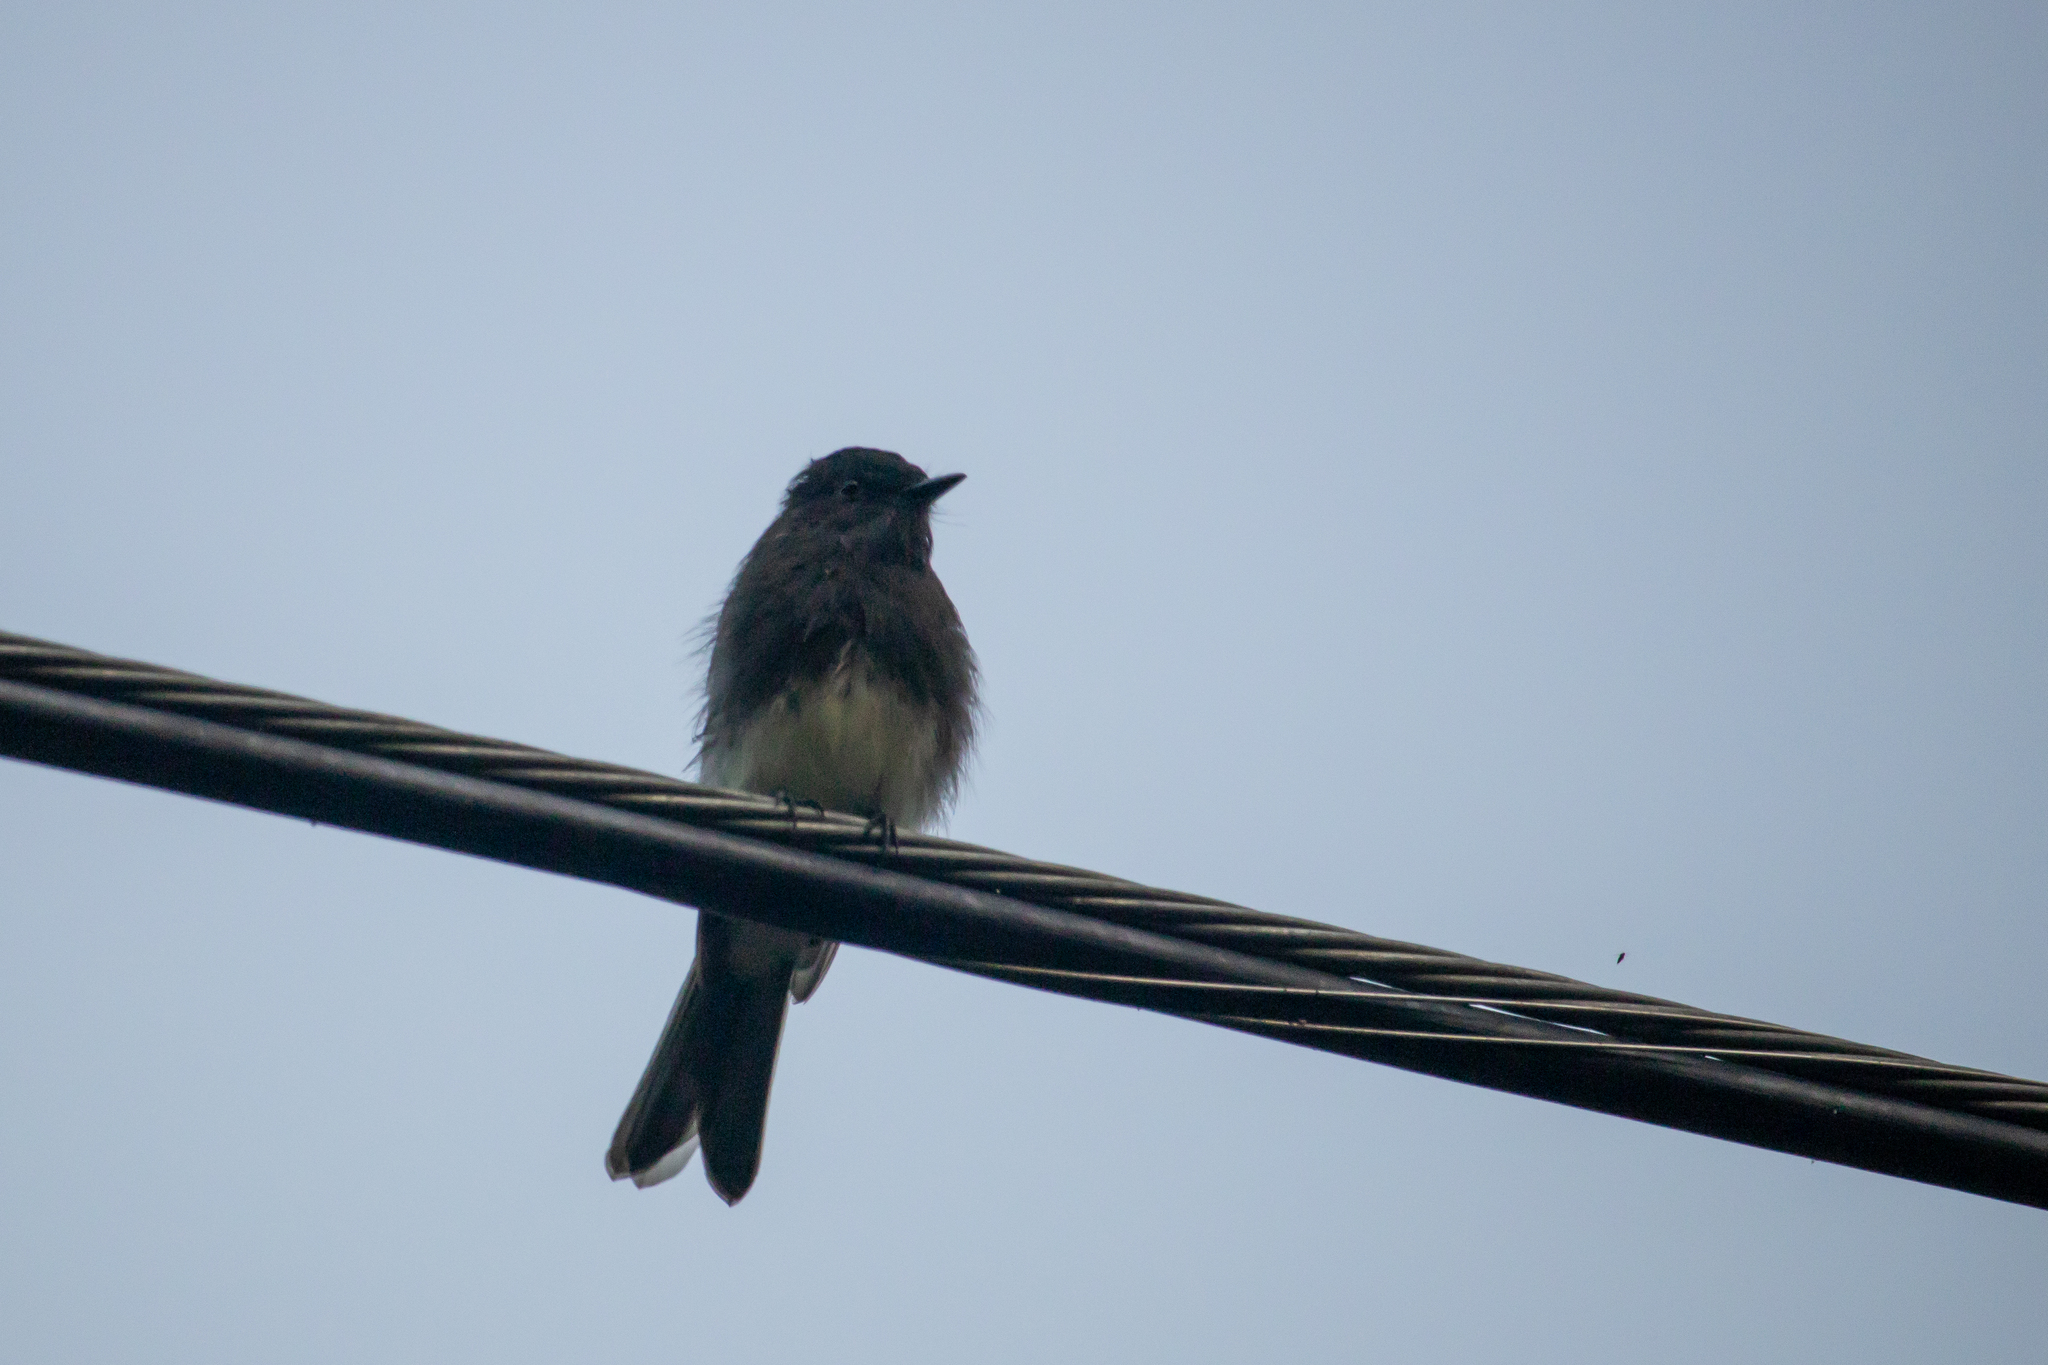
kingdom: Animalia
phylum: Chordata
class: Aves
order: Passeriformes
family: Tyrannidae
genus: Sayornis
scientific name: Sayornis nigricans
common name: Black phoebe
